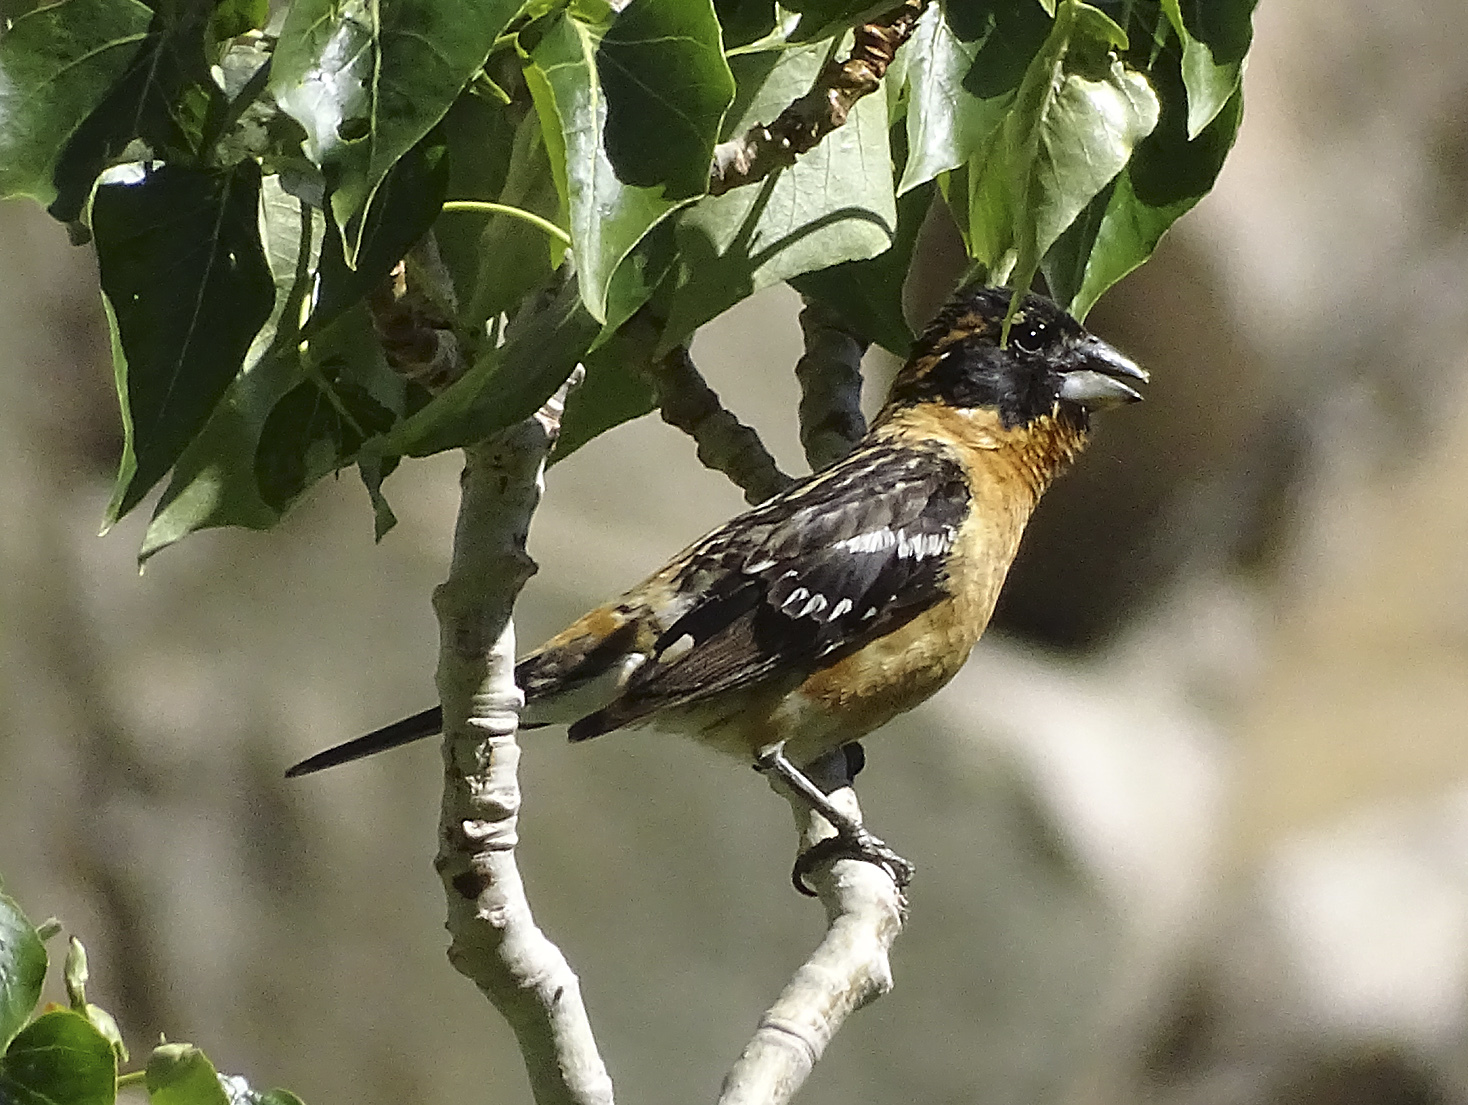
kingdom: Animalia
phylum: Chordata
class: Aves
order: Passeriformes
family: Cardinalidae
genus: Pheucticus
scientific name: Pheucticus melanocephalus
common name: Black-headed grosbeak
